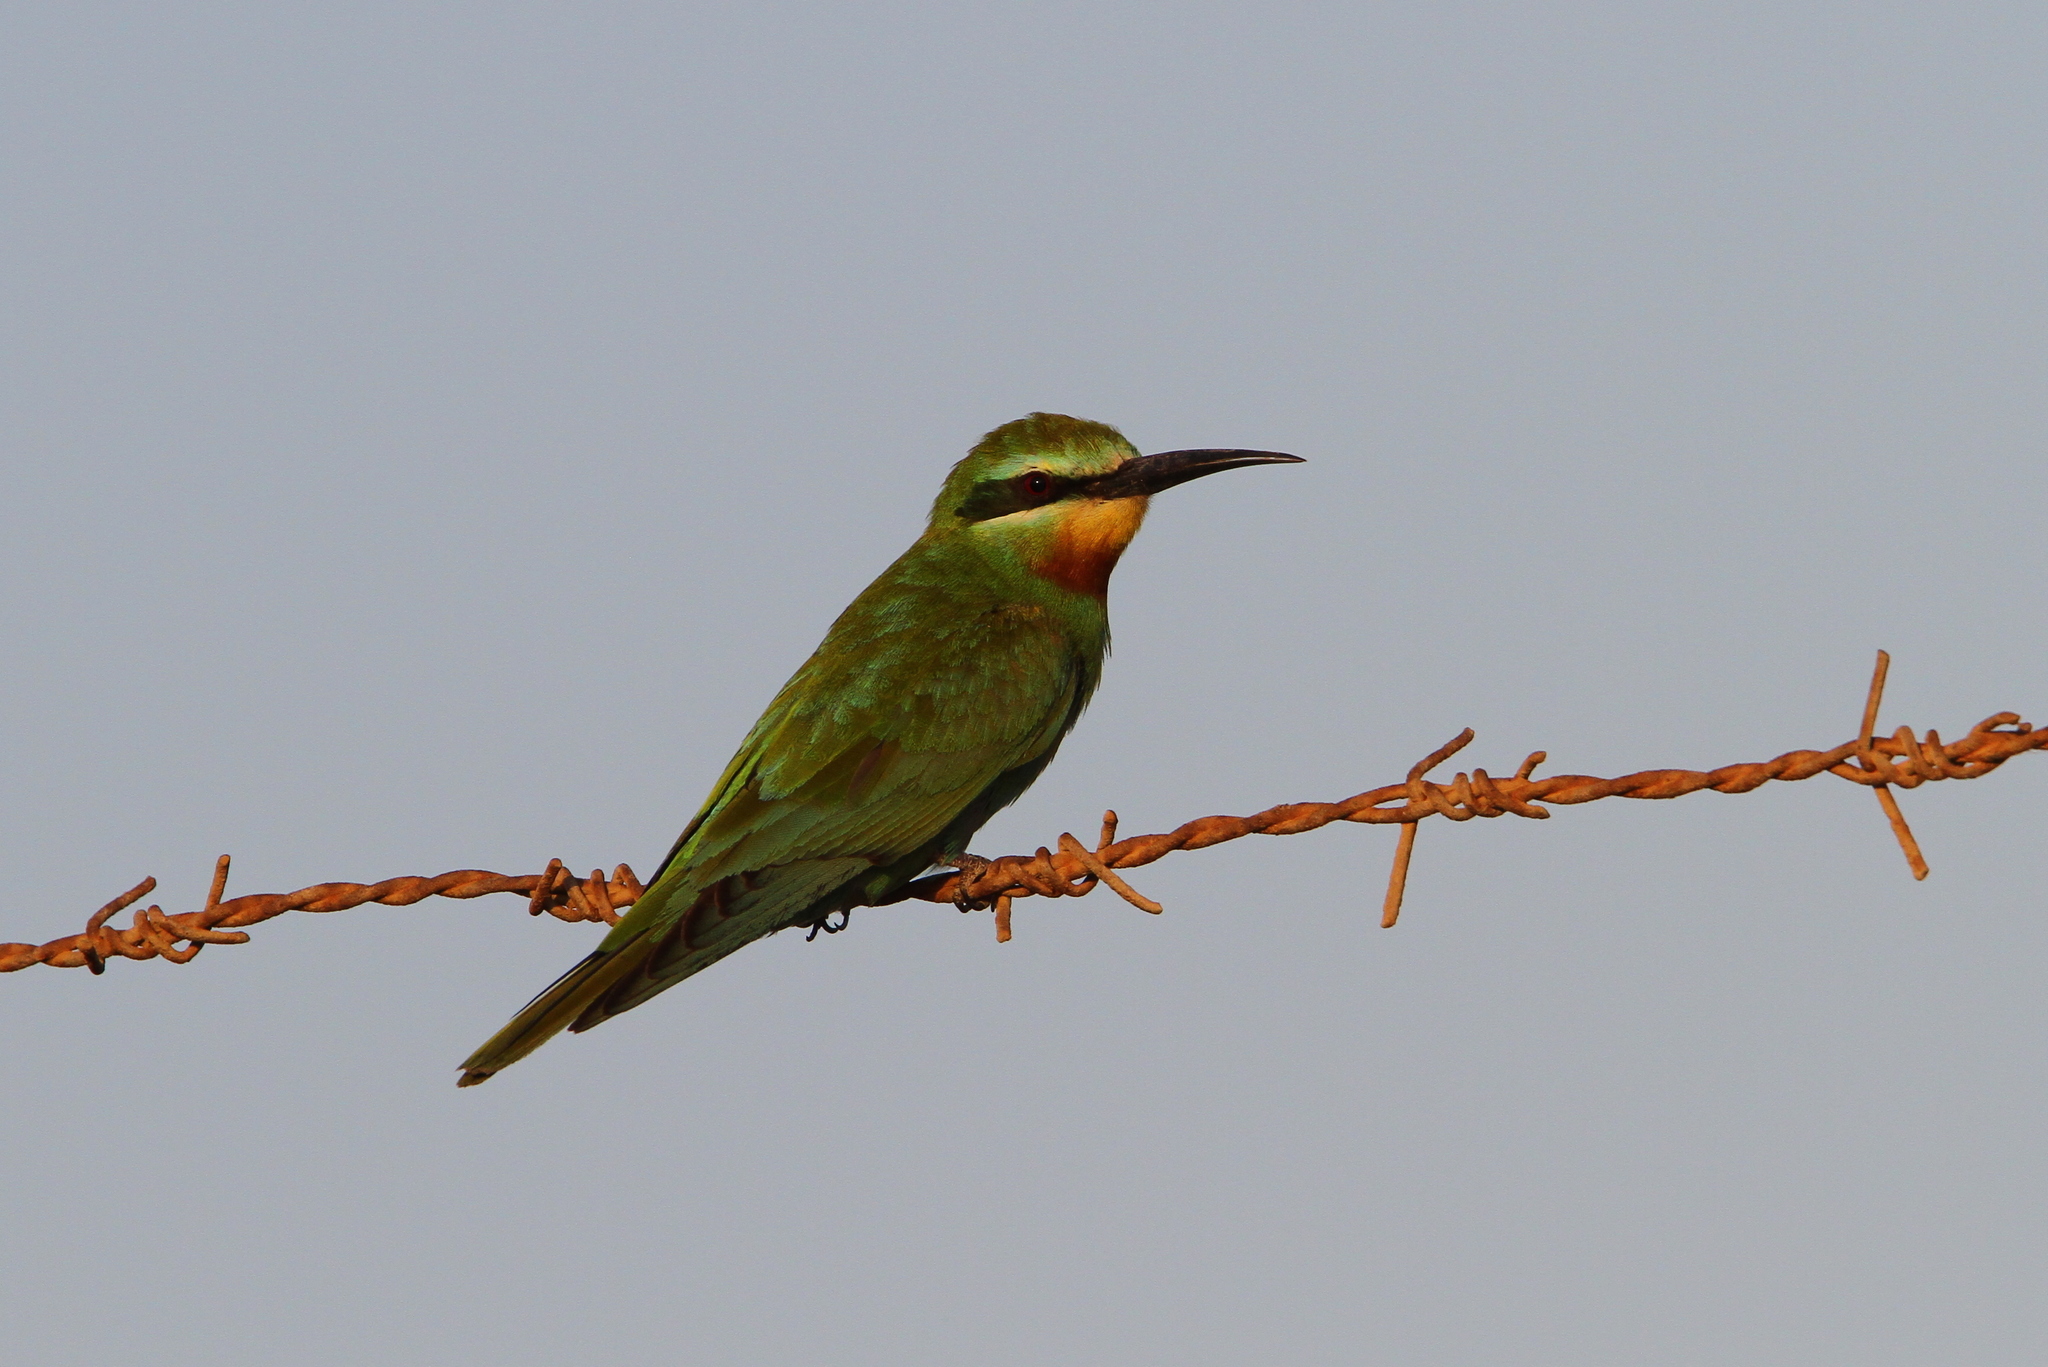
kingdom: Animalia
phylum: Chordata
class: Aves
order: Coraciiformes
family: Meropidae
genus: Merops
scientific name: Merops persicus
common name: Blue-cheeked bee-eater
